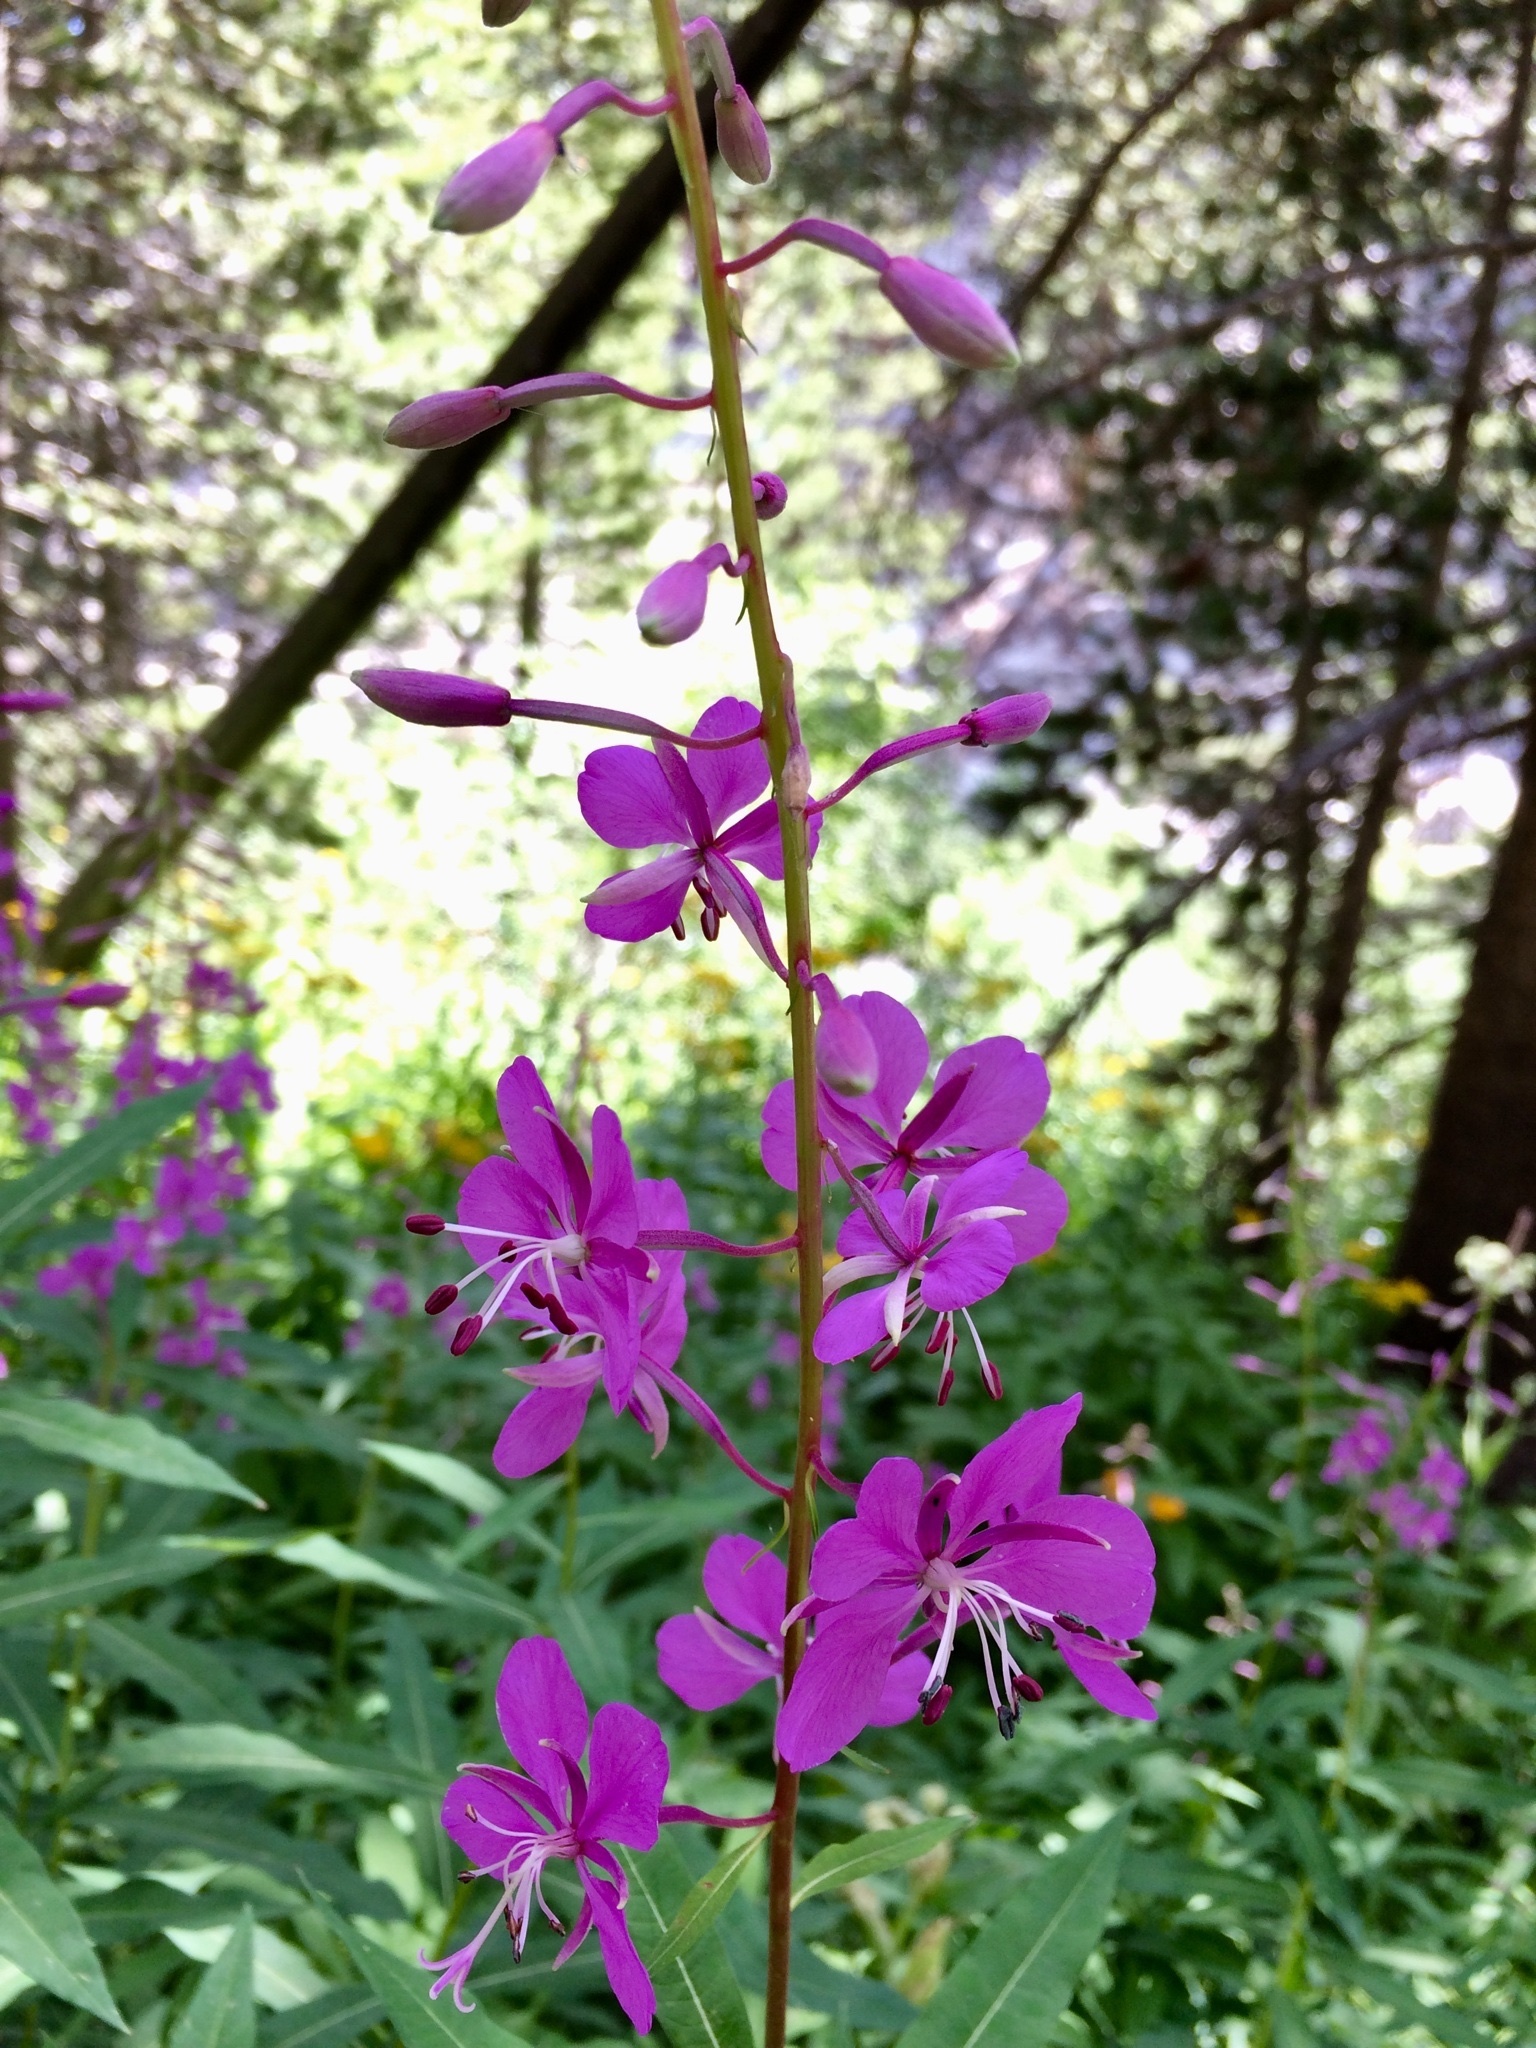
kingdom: Plantae
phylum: Tracheophyta
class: Magnoliopsida
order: Myrtales
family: Onagraceae
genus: Chamaenerion
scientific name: Chamaenerion angustifolium
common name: Fireweed
